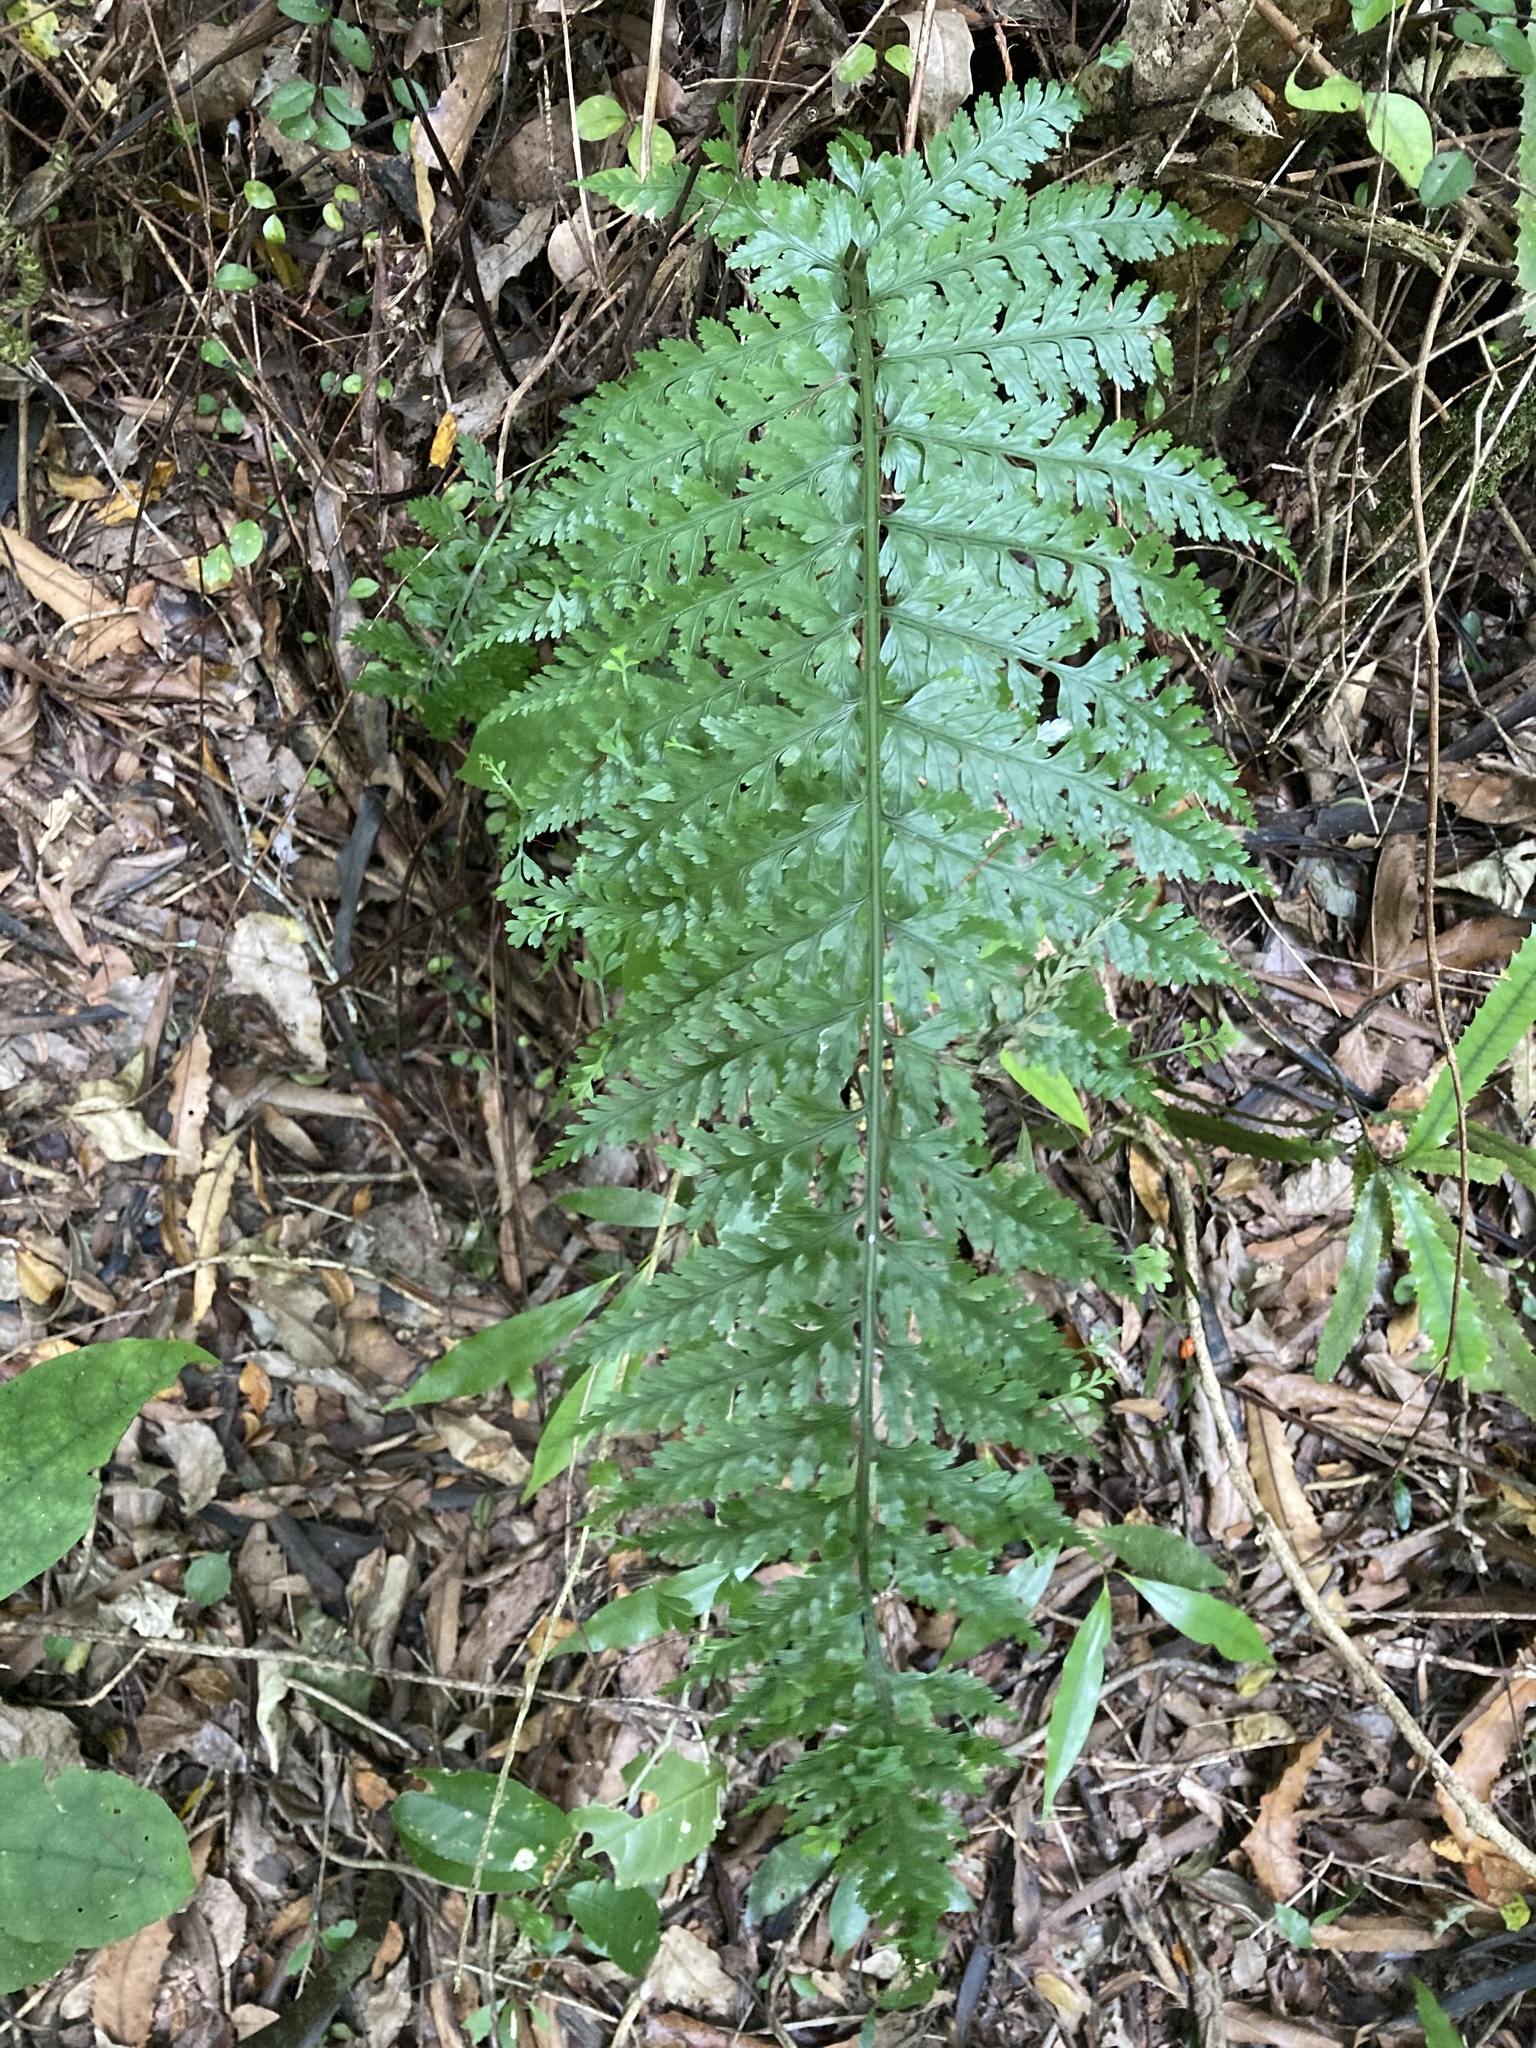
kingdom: Plantae
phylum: Tracheophyta
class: Polypodiopsida
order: Polypodiales
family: Aspleniaceae
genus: Asplenium
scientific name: Asplenium bulbiferum
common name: Mother fern
